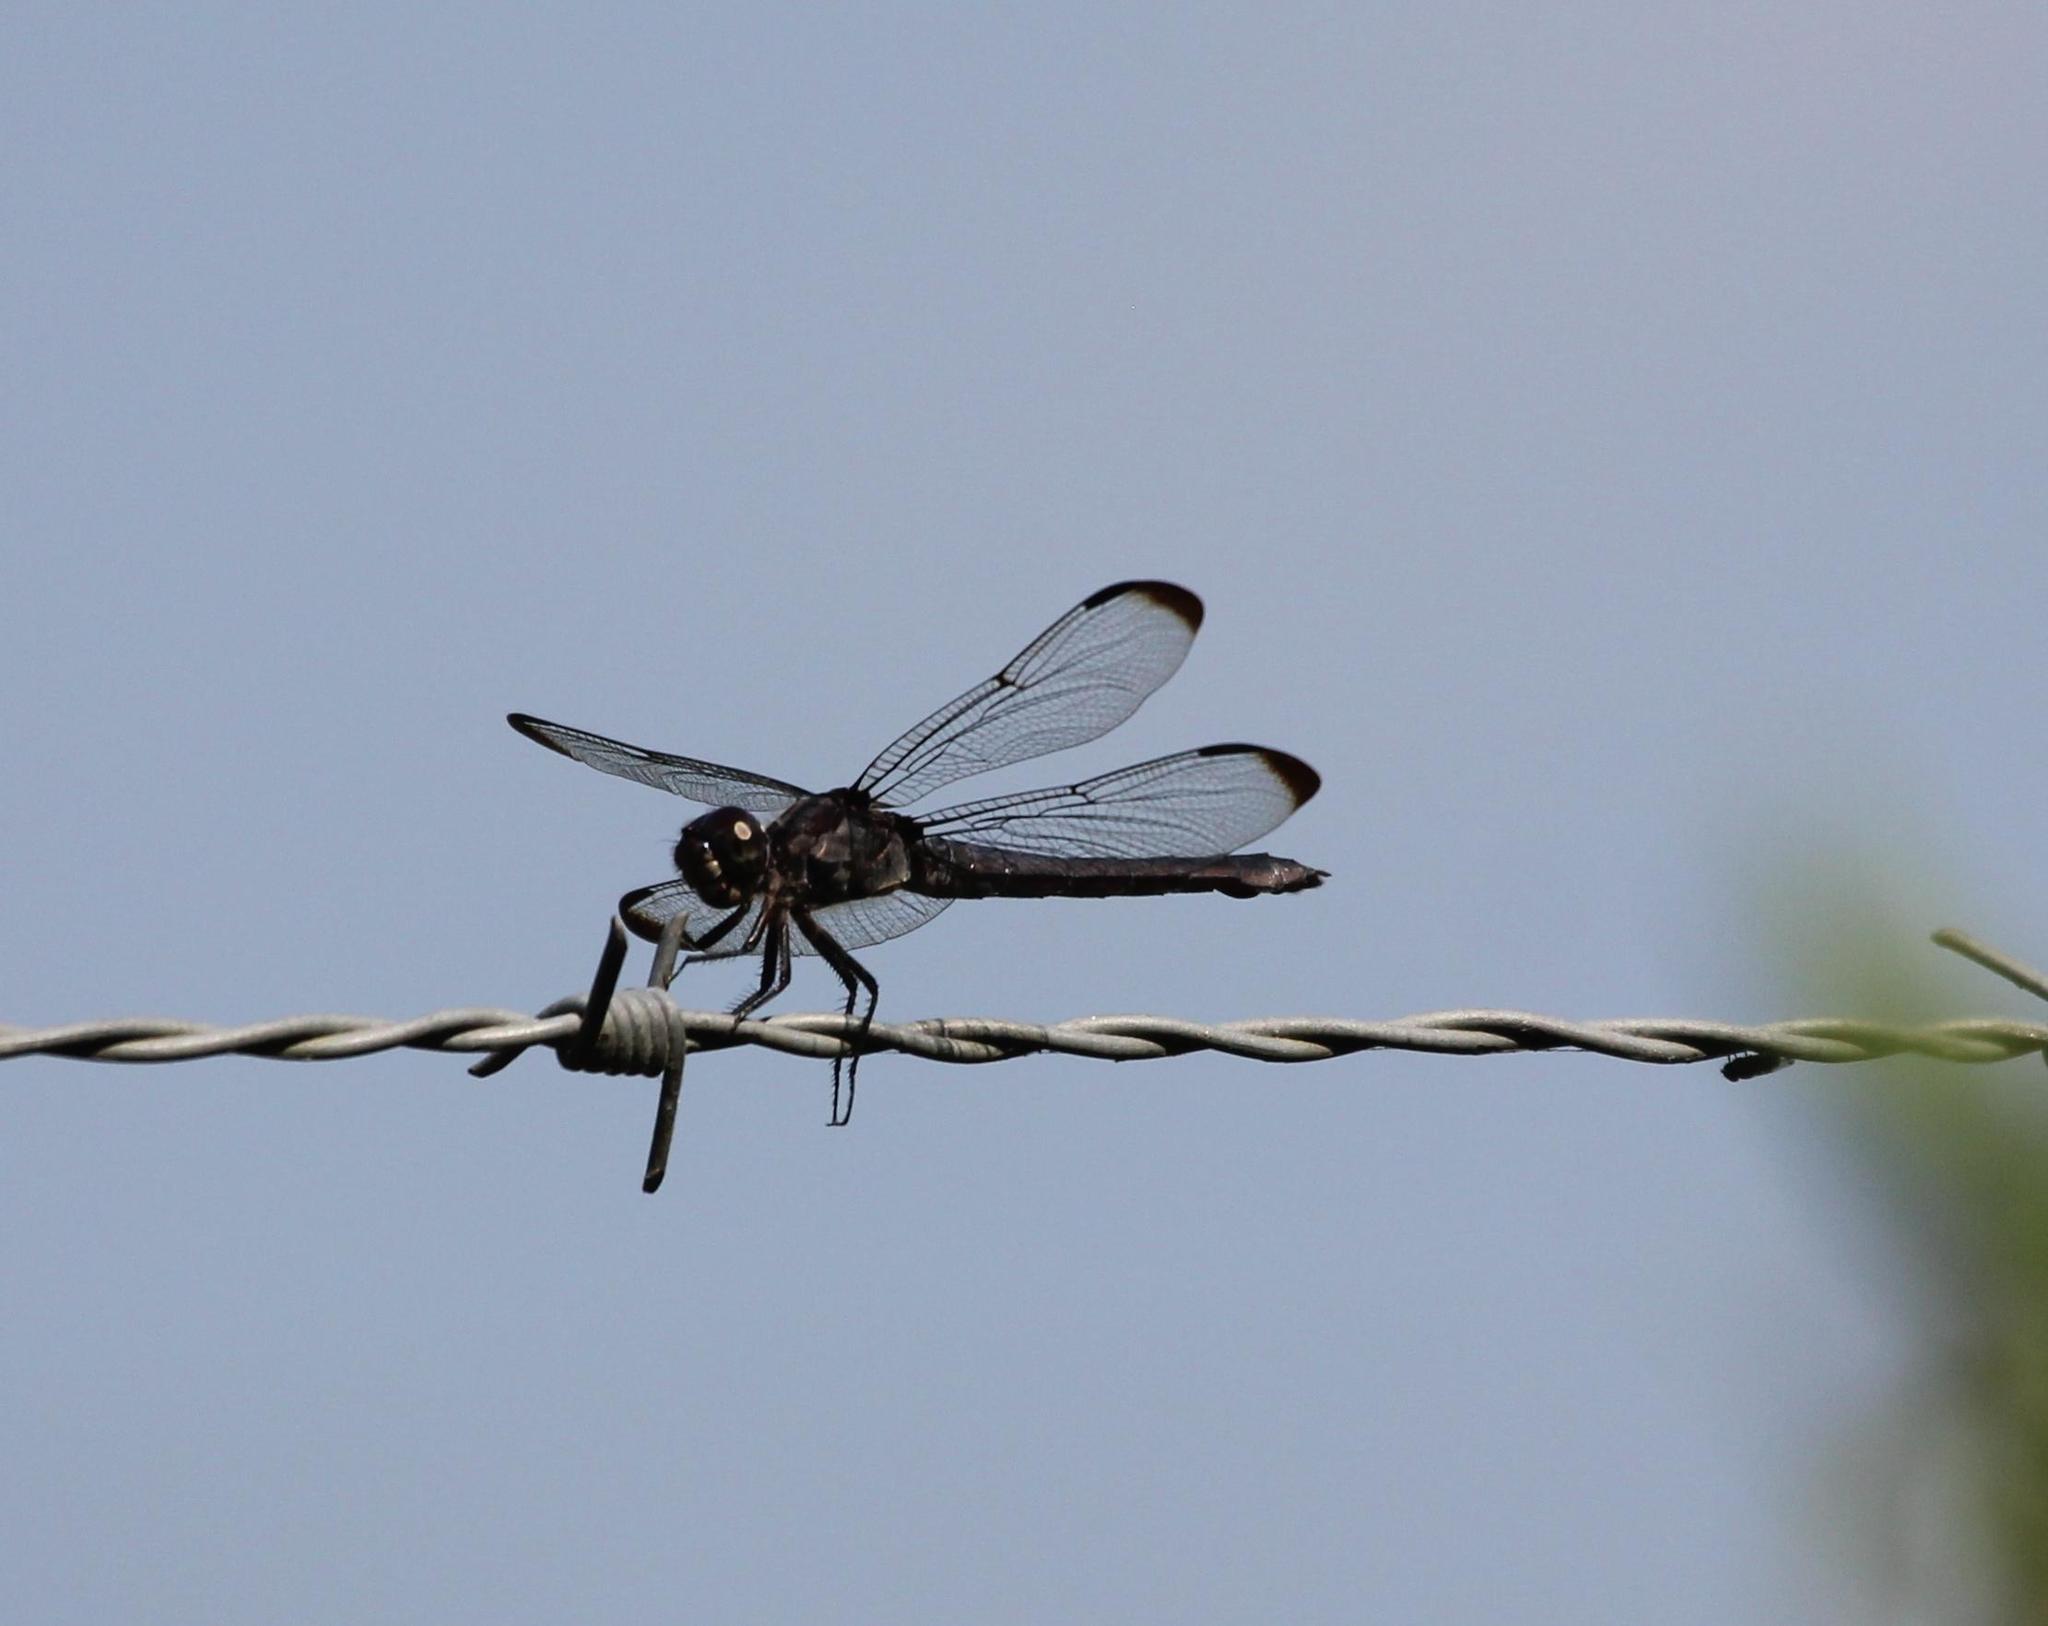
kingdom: Animalia
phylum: Arthropoda
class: Insecta
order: Odonata
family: Libellulidae
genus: Libellula
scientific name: Libellula incesta
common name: Slaty skimmer
